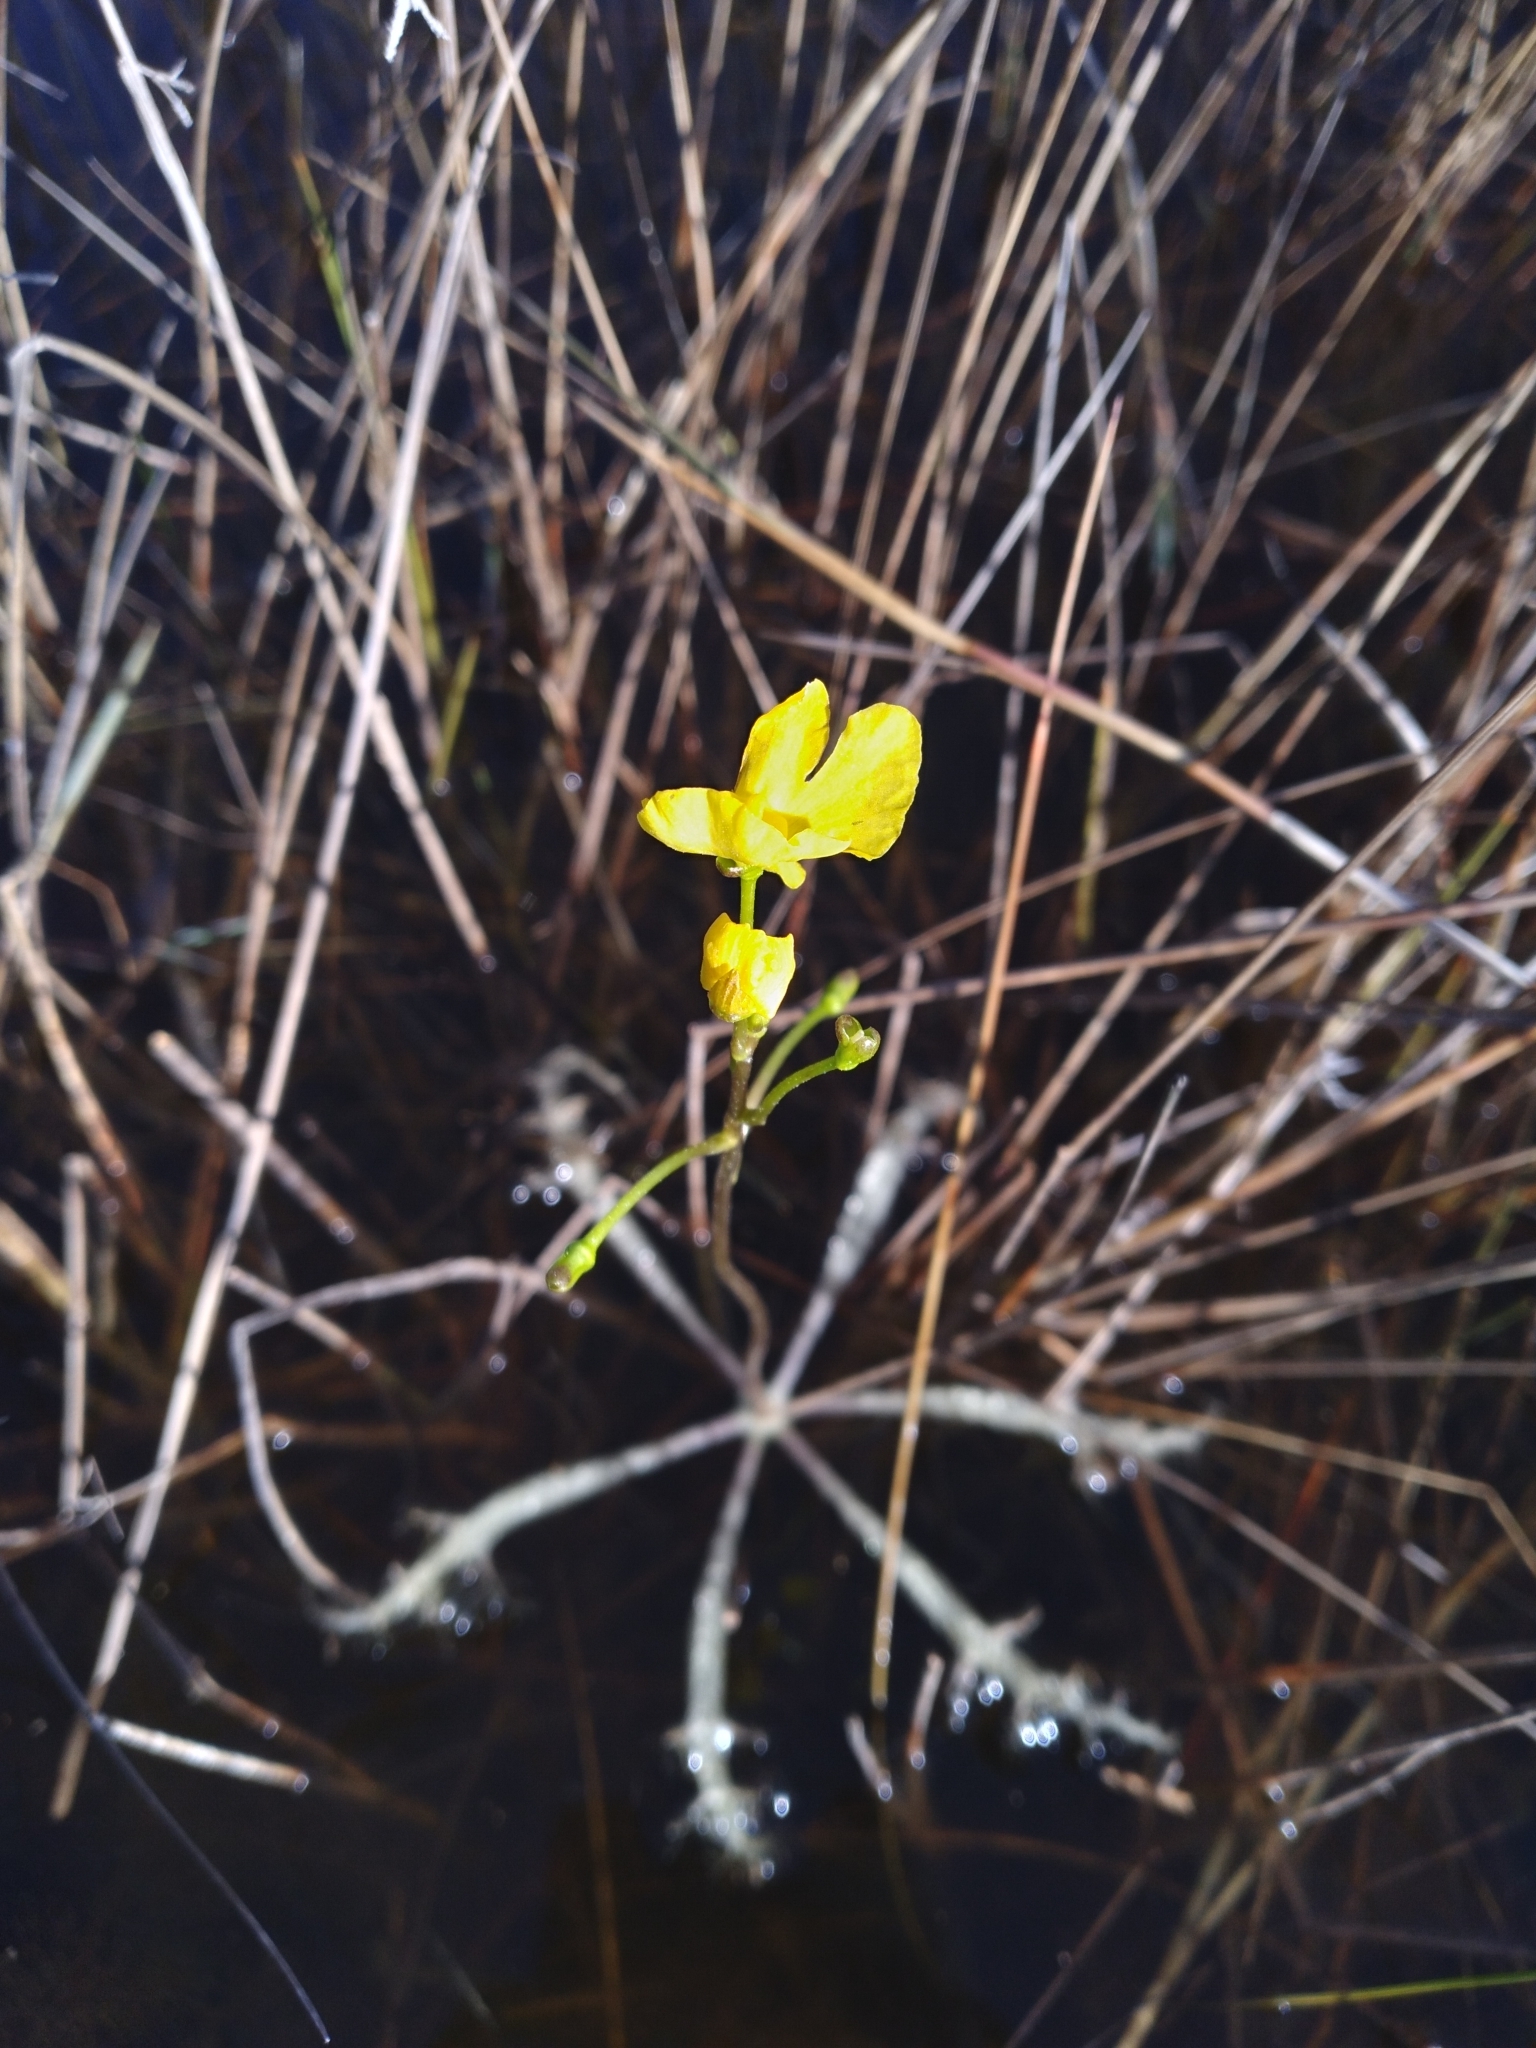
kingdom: Plantae
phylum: Tracheophyta
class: Magnoliopsida
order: Lamiales
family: Lentibulariaceae
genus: Utricularia
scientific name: Utricularia inflata
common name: Floating bladderwort
